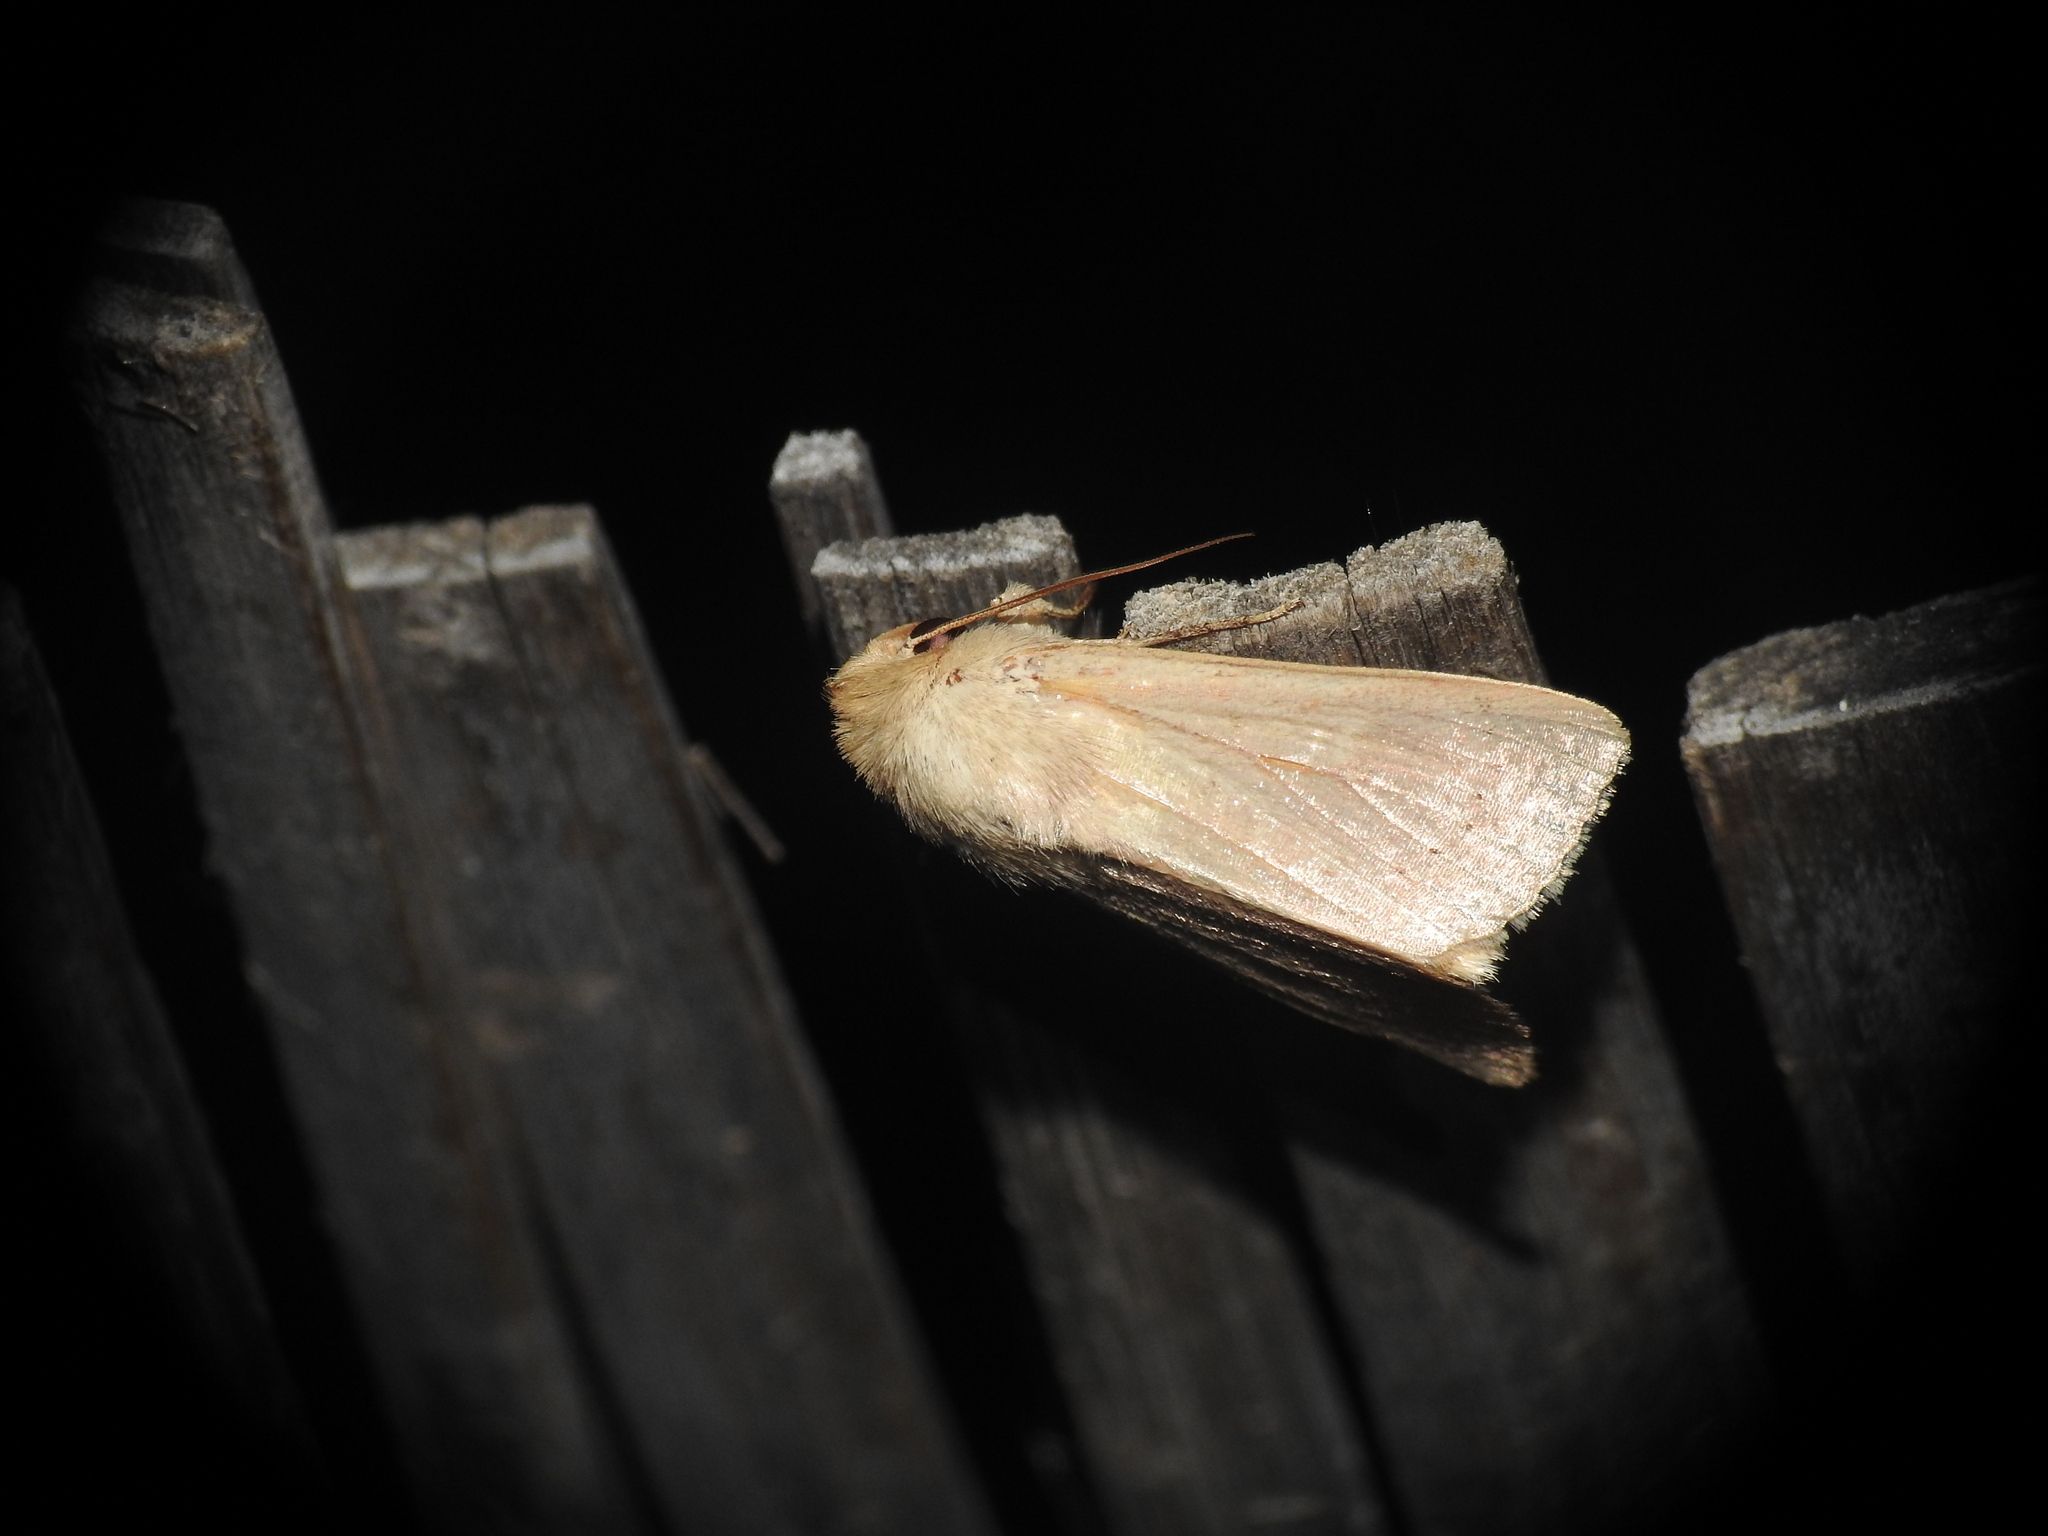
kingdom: Animalia
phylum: Arthropoda
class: Insecta
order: Lepidoptera
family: Noctuidae
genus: Mythimna
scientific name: Mythimna ferrago
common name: Clay
